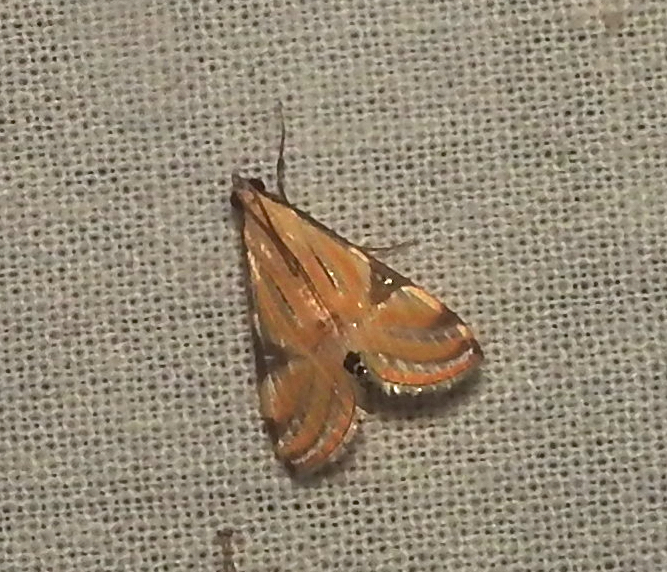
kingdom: Animalia
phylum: Arthropoda
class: Insecta
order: Lepidoptera
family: Crambidae
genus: Talanga
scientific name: Talanga sexpunctalis
